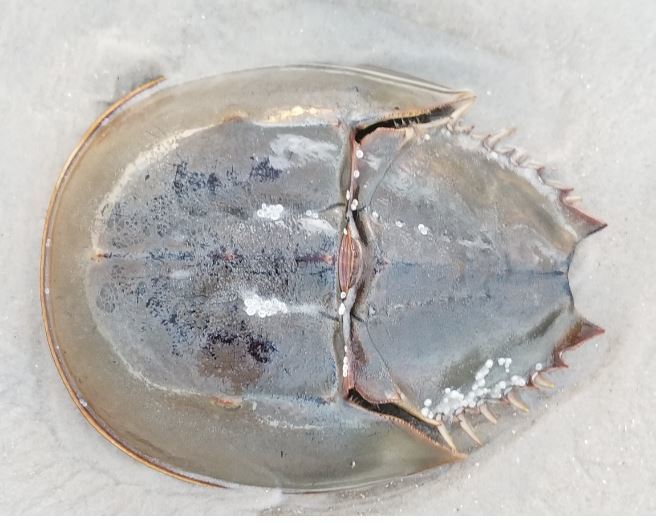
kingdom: Animalia
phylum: Arthropoda
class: Merostomata
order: Xiphosurida
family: Limulidae
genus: Limulus
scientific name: Limulus polyphemus
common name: Horseshoe crab
